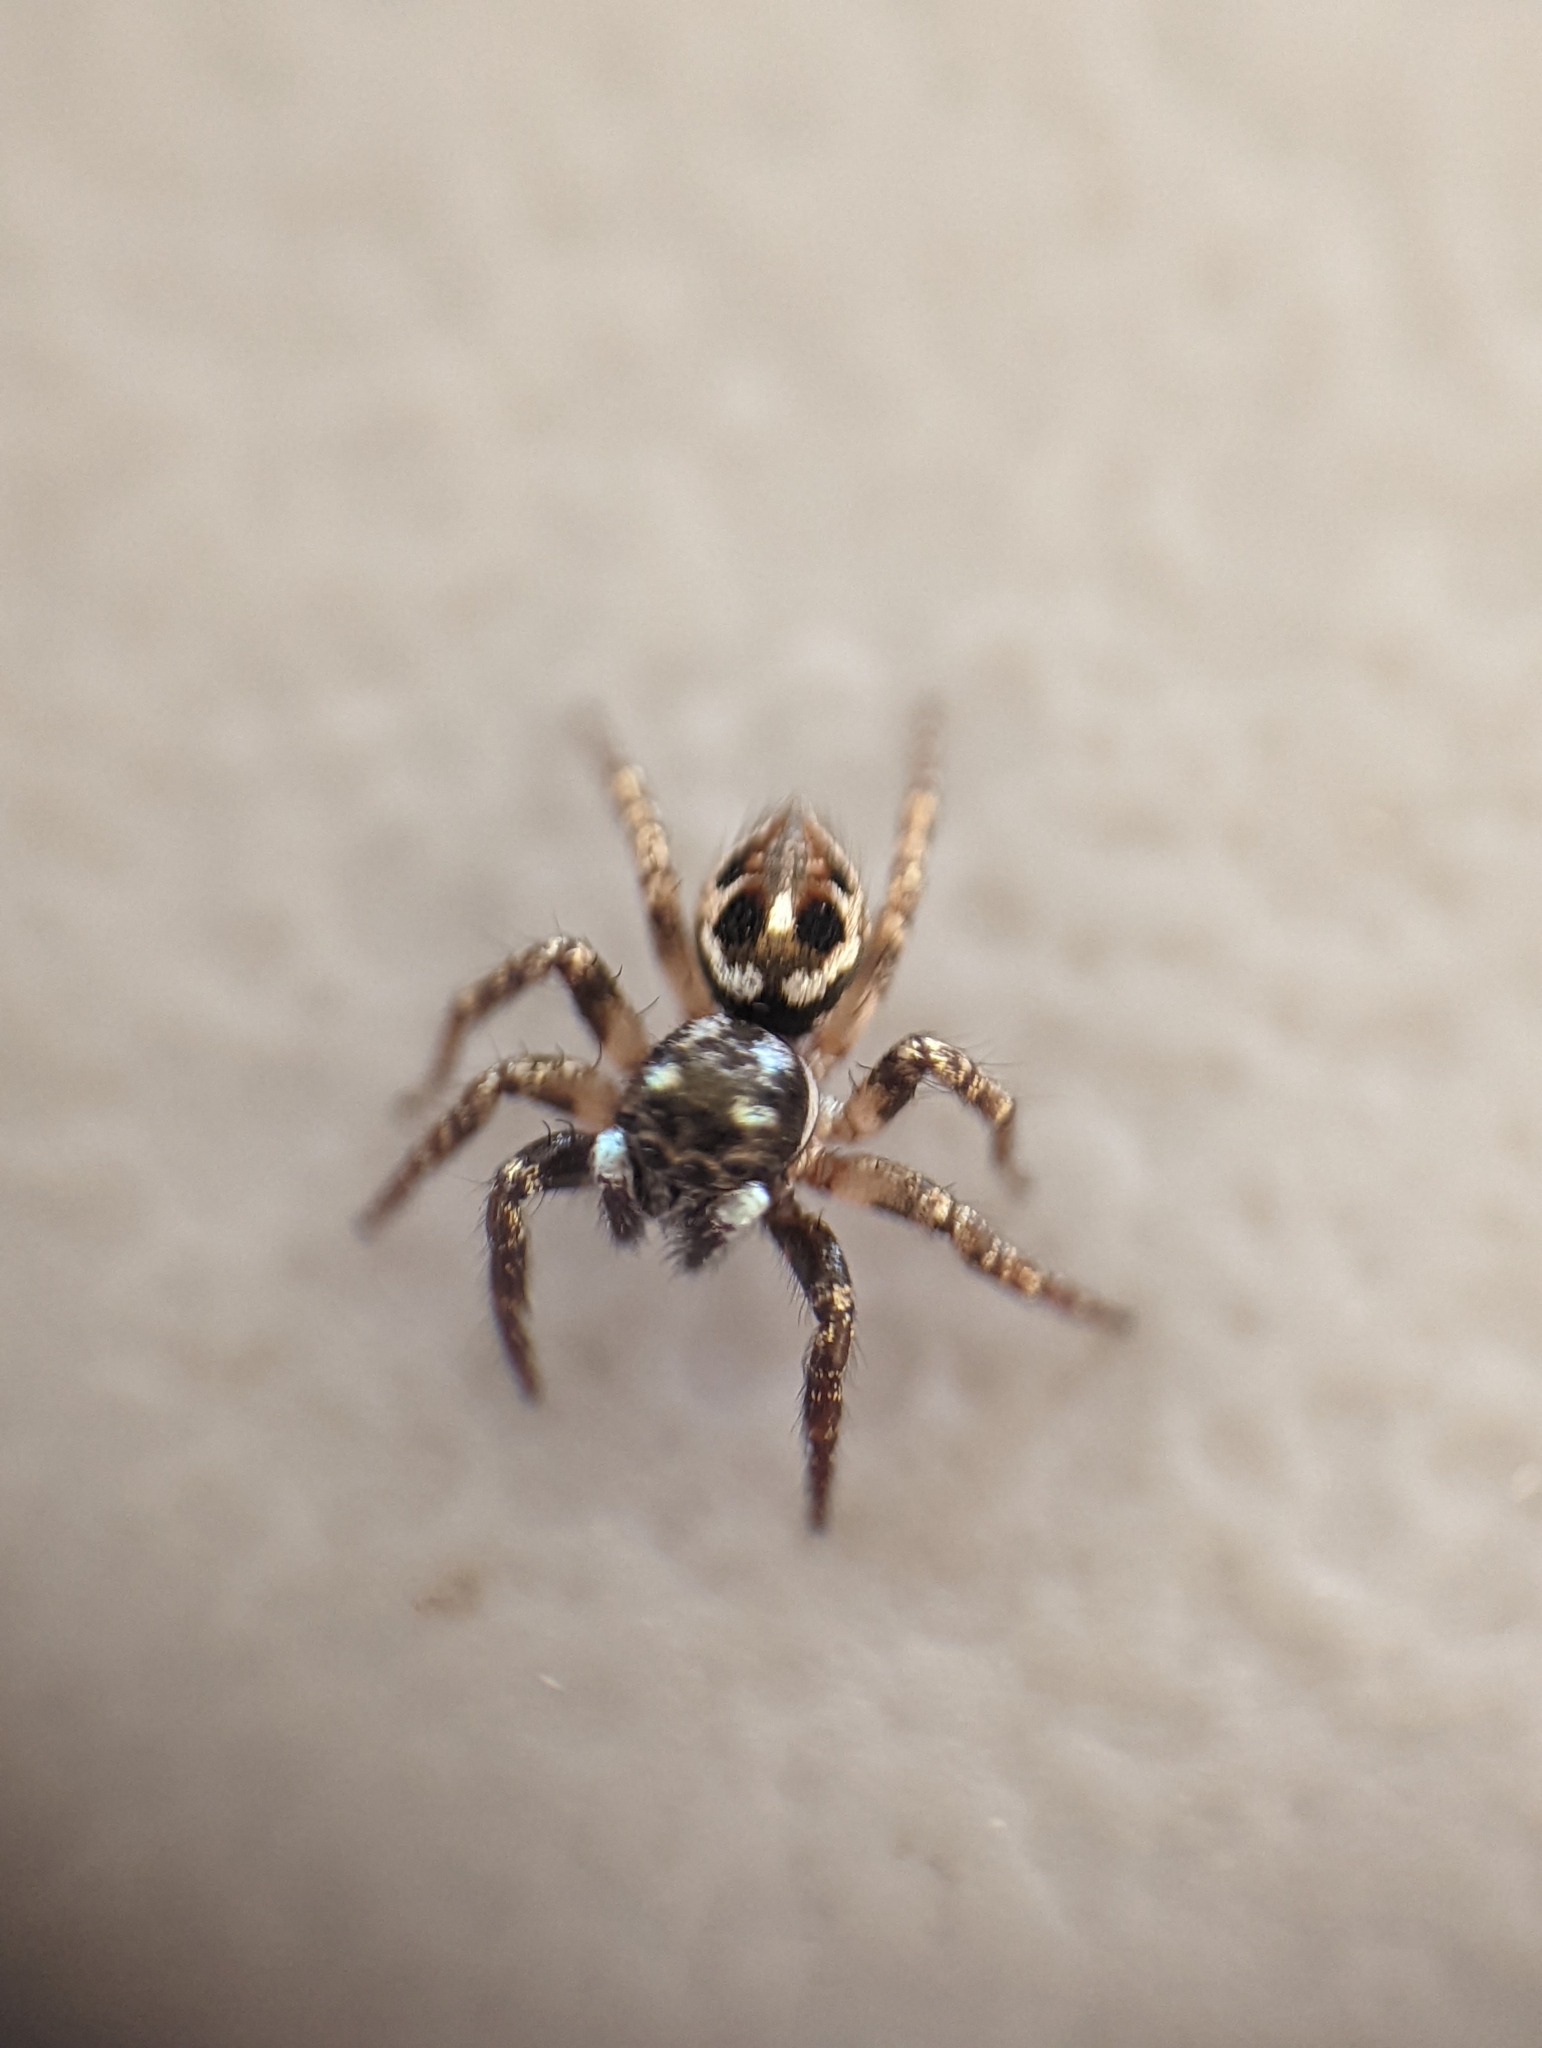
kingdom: Animalia
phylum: Arthropoda
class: Arachnida
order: Araneae
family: Salticidae
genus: Anasaitis
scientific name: Anasaitis canosa
